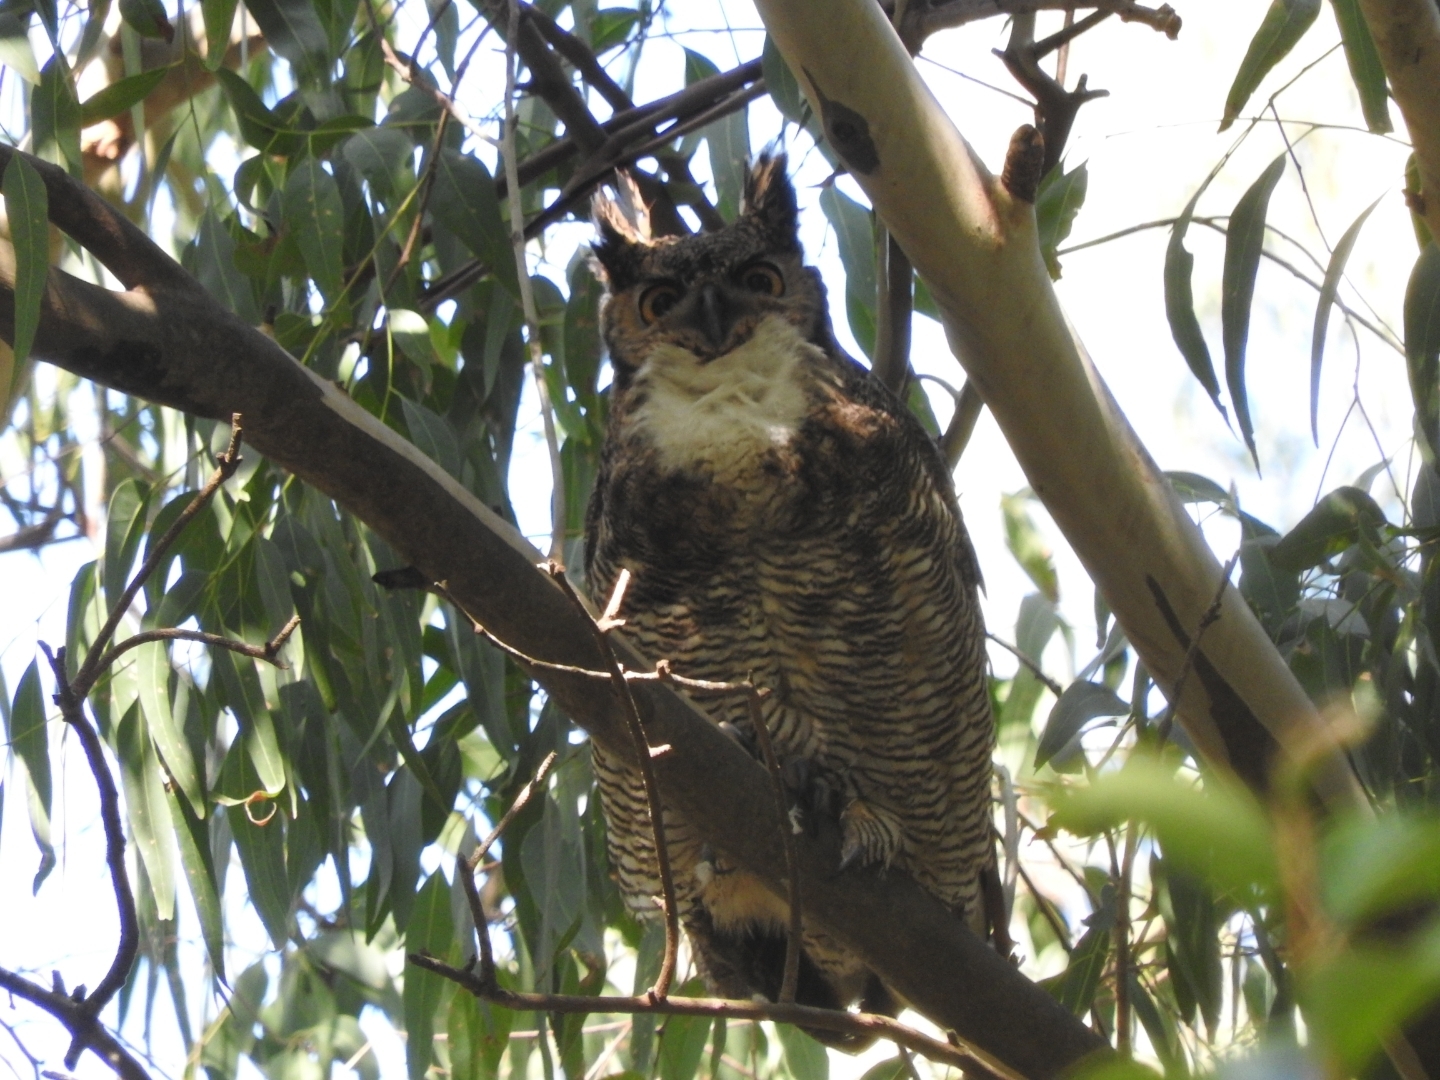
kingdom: Animalia
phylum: Chordata
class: Aves
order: Strigiformes
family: Strigidae
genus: Bubo
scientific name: Bubo virginianus
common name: Great horned owl
